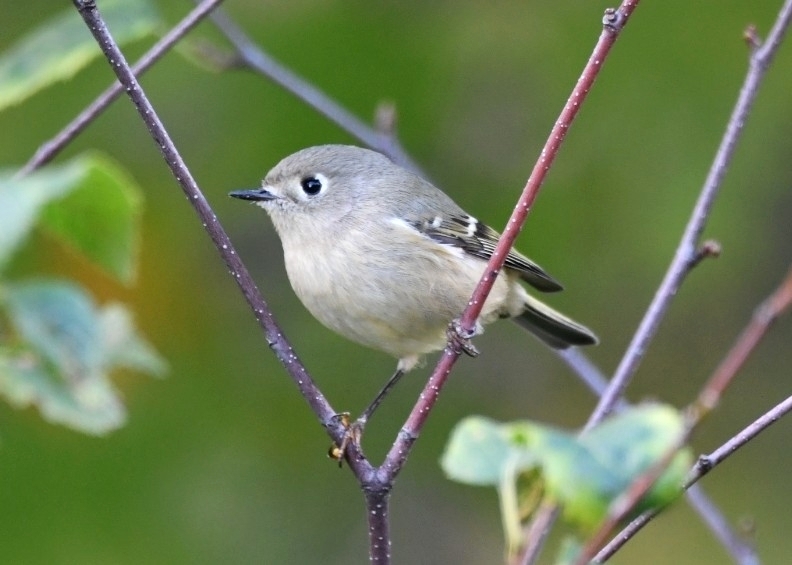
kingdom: Animalia
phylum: Chordata
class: Aves
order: Passeriformes
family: Regulidae
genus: Regulus
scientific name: Regulus calendula
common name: Ruby-crowned kinglet
